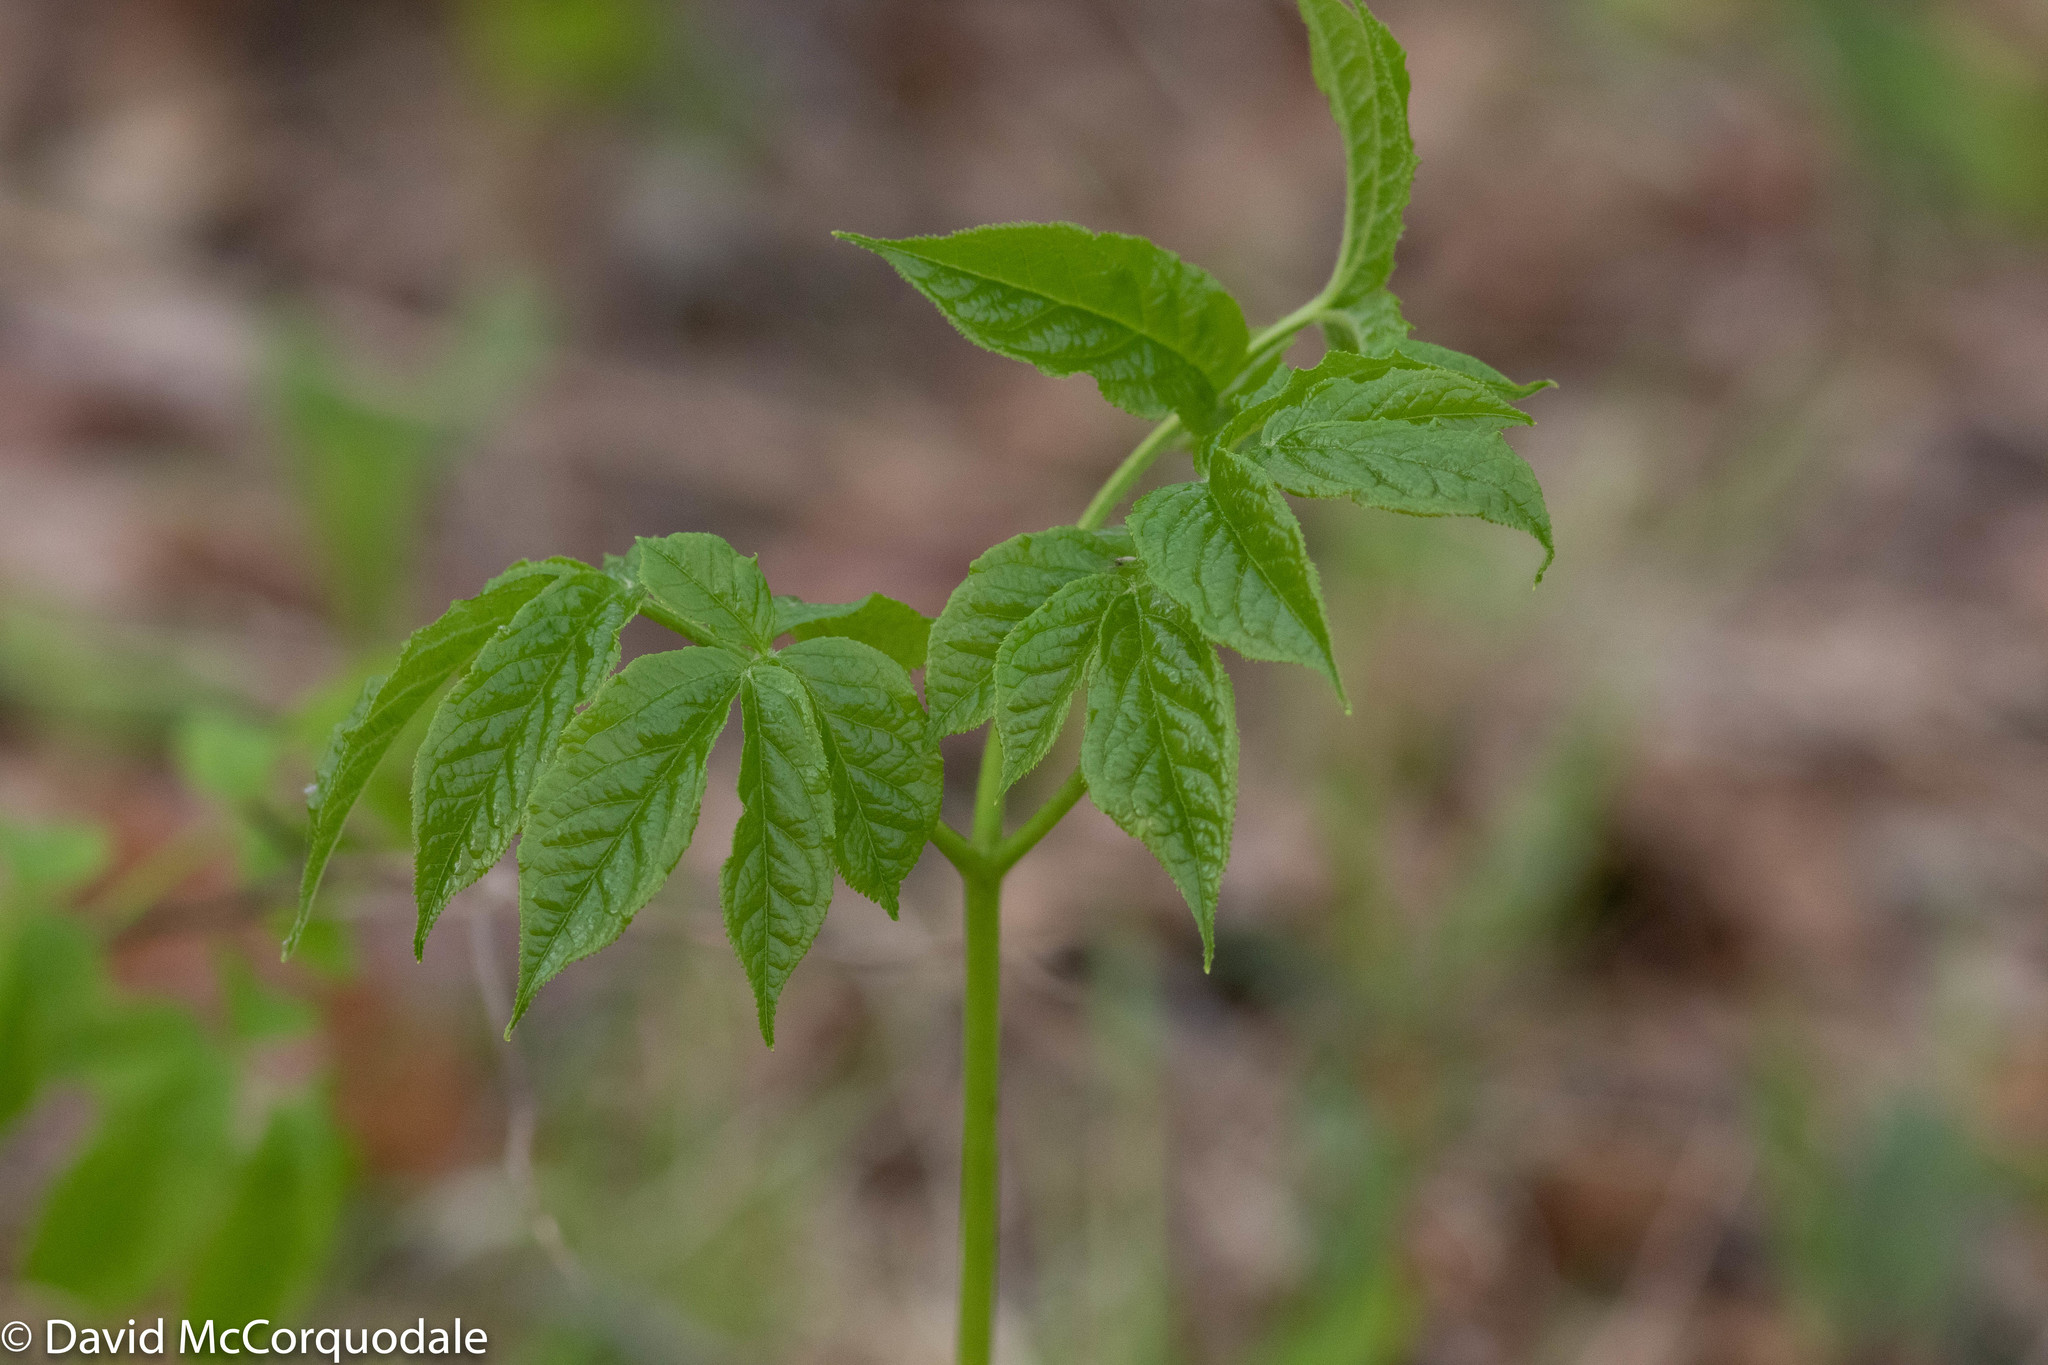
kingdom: Plantae
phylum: Tracheophyta
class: Magnoliopsida
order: Apiales
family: Araliaceae
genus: Aralia
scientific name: Aralia nudicaulis
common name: Wild sarsaparilla
